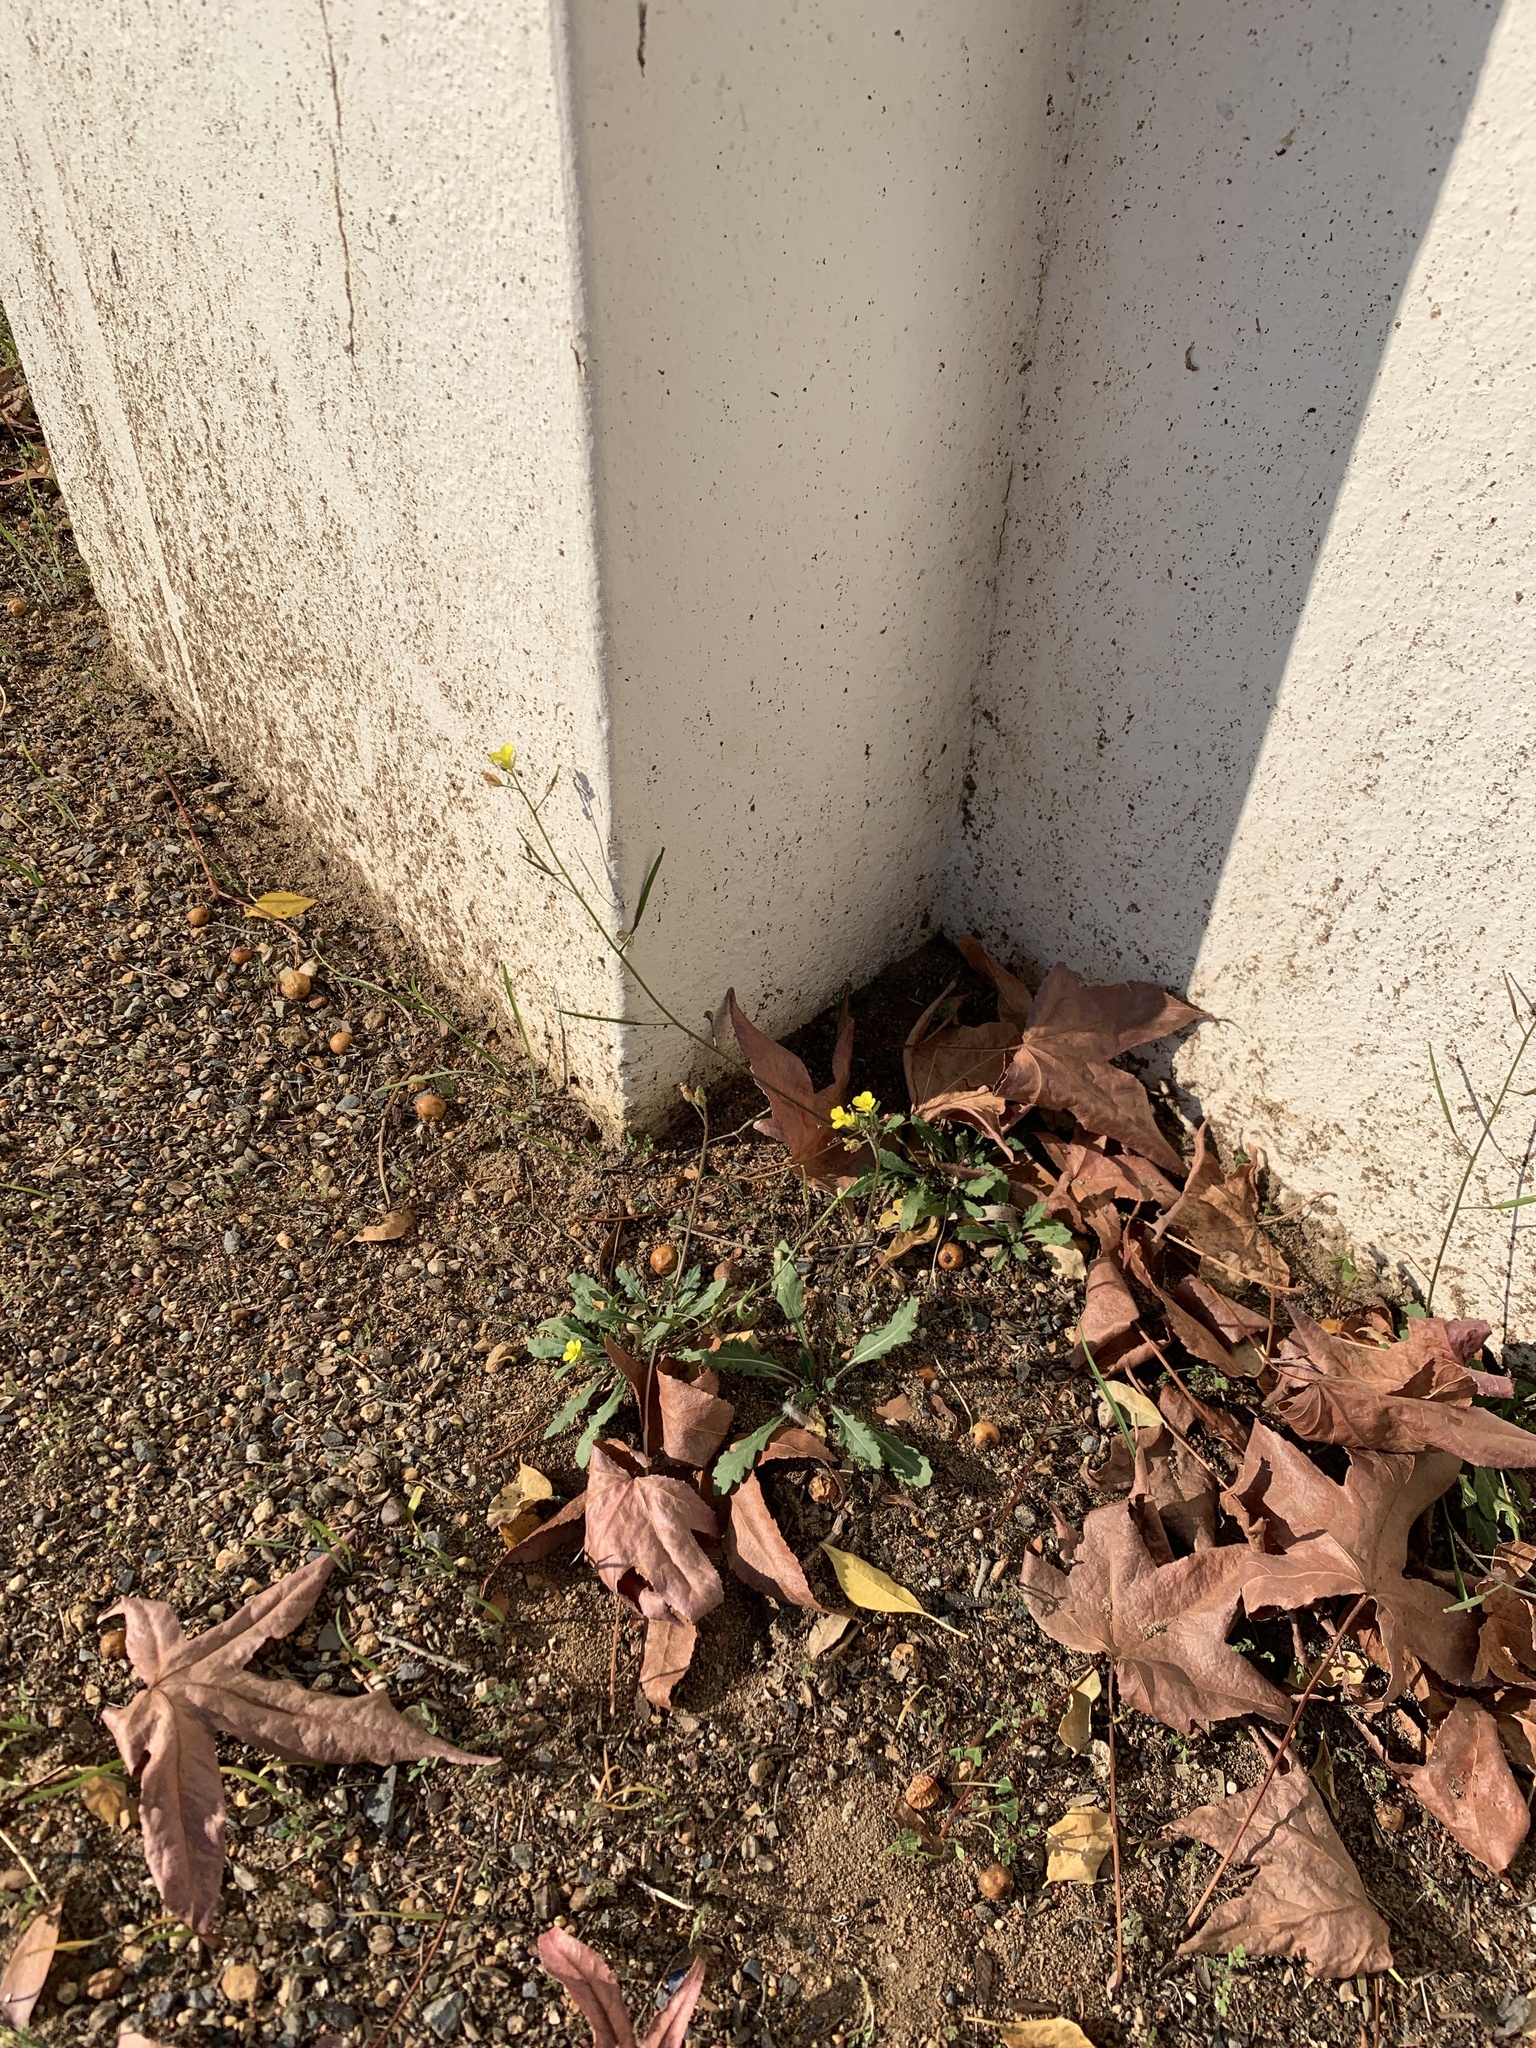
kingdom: Plantae
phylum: Tracheophyta
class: Magnoliopsida
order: Brassicales
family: Brassicaceae
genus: Diplotaxis
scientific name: Diplotaxis muralis
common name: Annual wall-rocket
